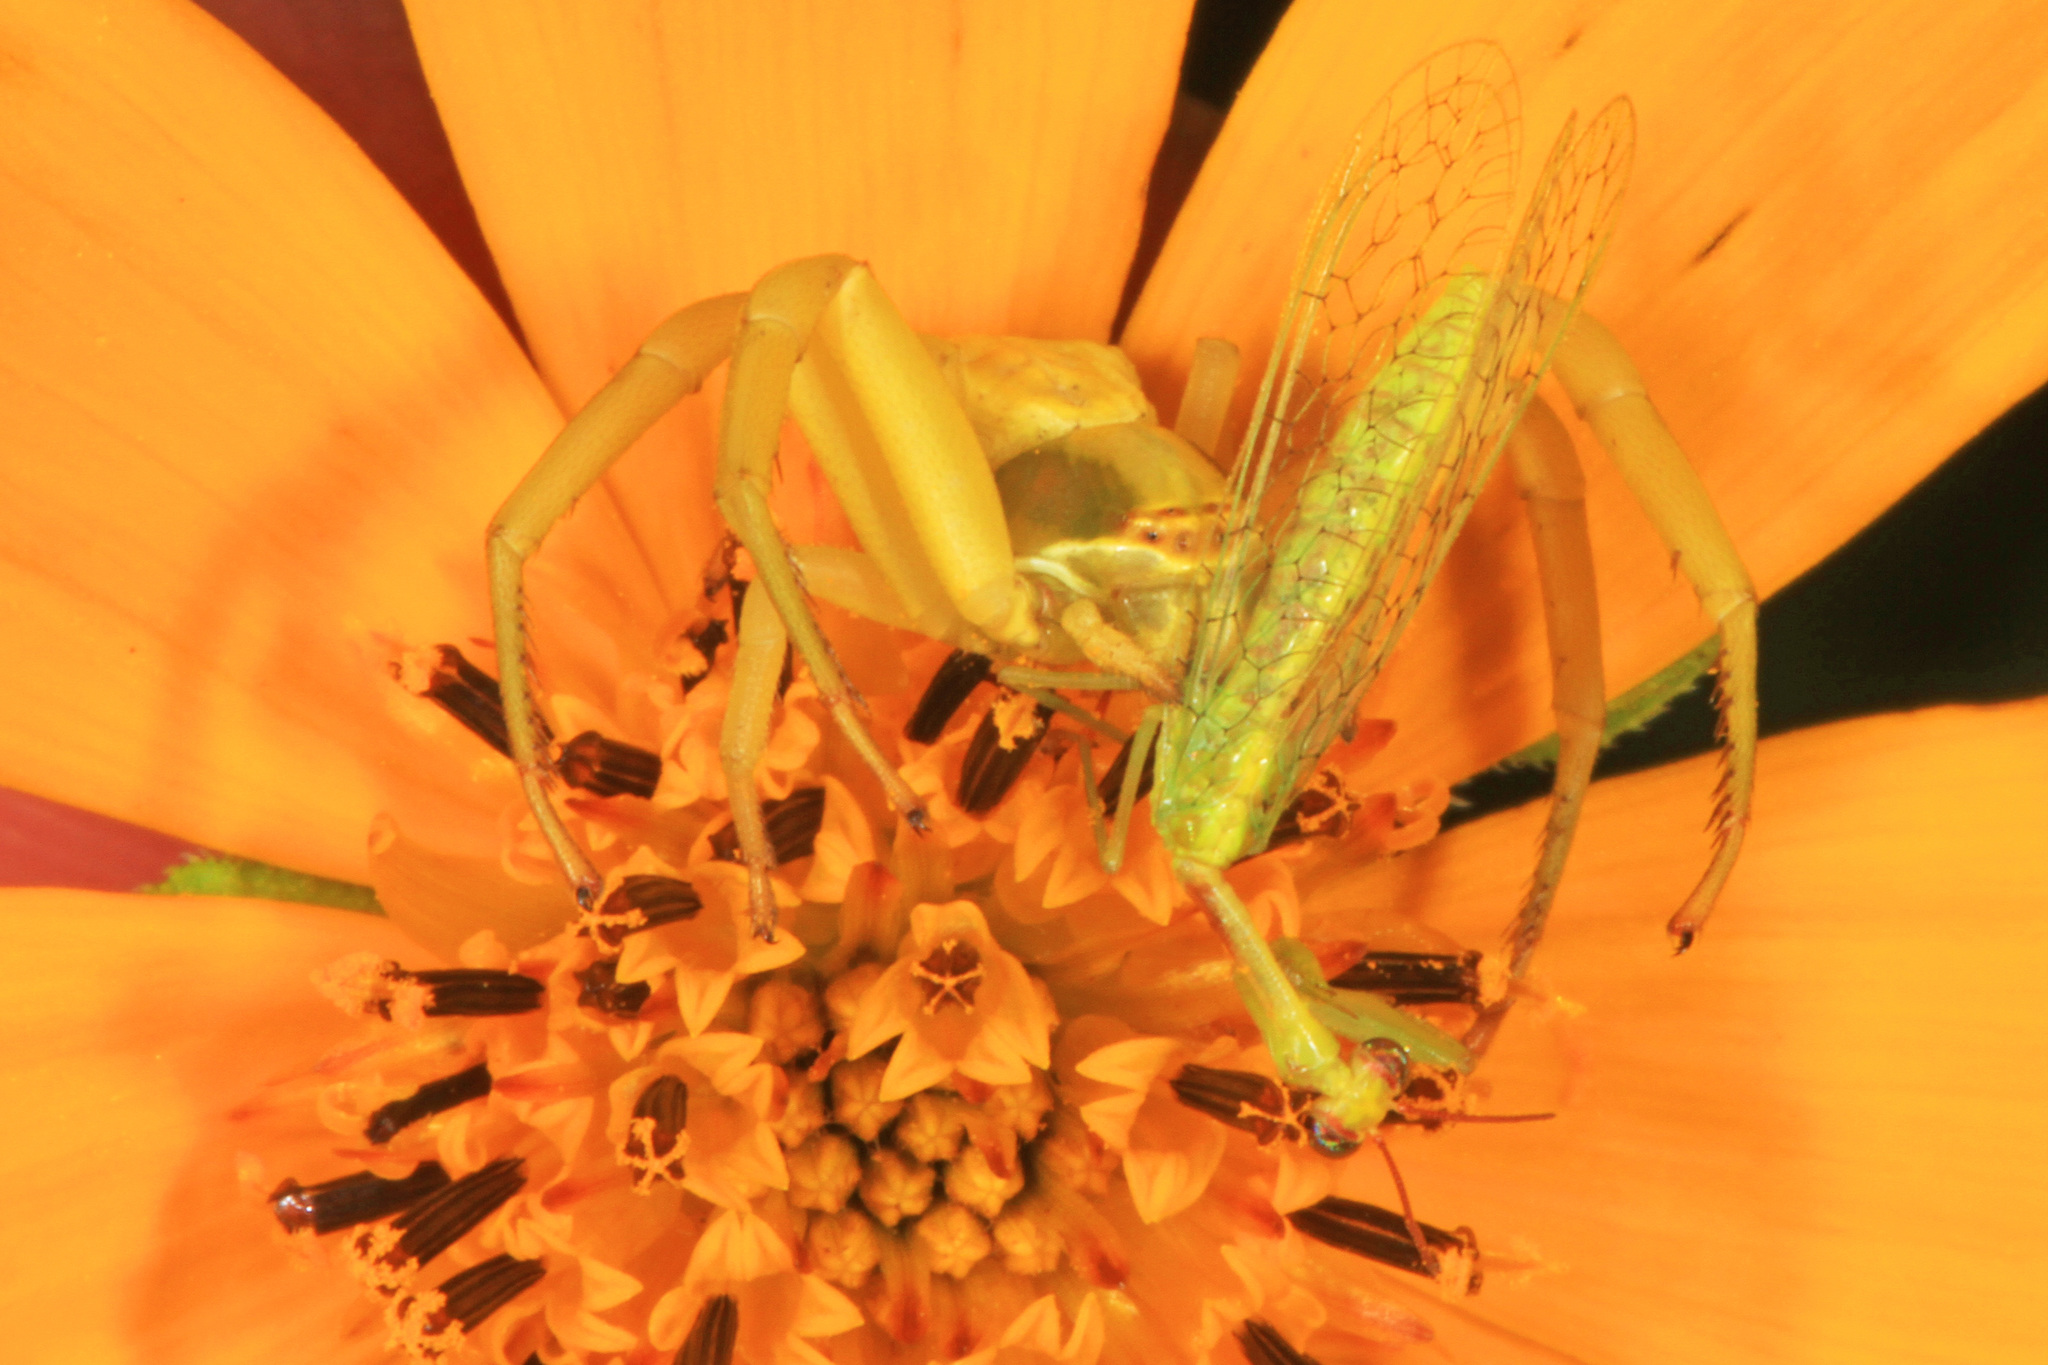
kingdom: Animalia
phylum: Arthropoda
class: Arachnida
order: Araneae
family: Thomisidae
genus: Misumenoides
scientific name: Misumenoides formosipes
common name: White-banded crab spider
